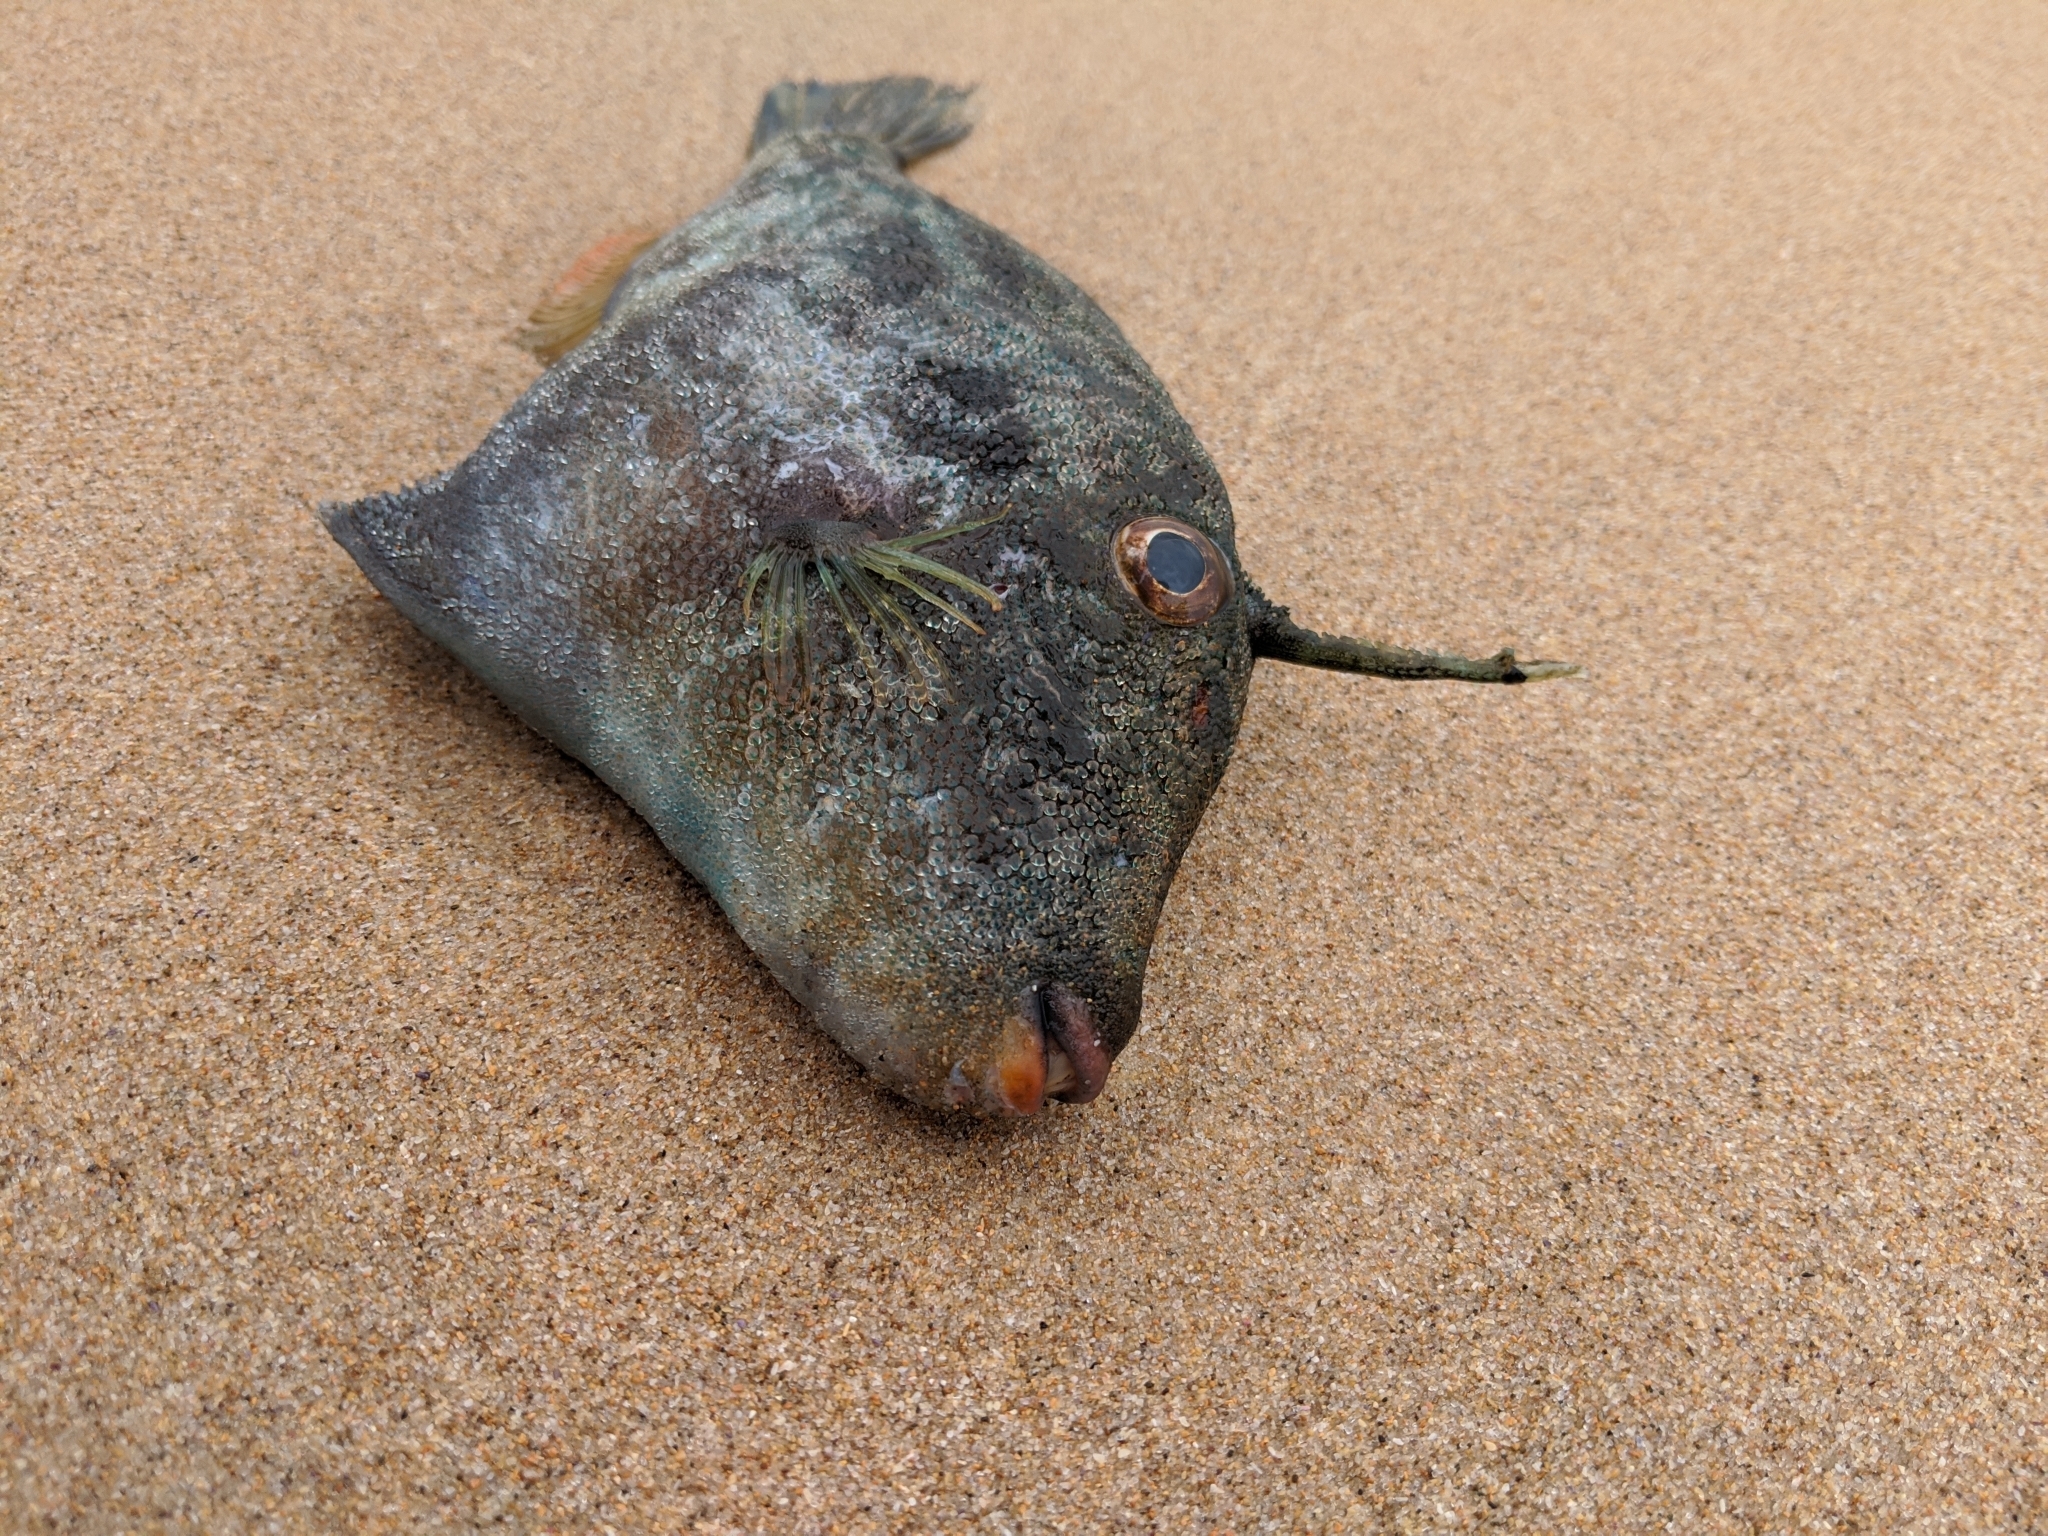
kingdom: Animalia
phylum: Chordata
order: Tetraodontiformes
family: Monacanthidae
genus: Scobinichthys
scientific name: Scobinichthys granulatus
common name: Rough leatherjacket
